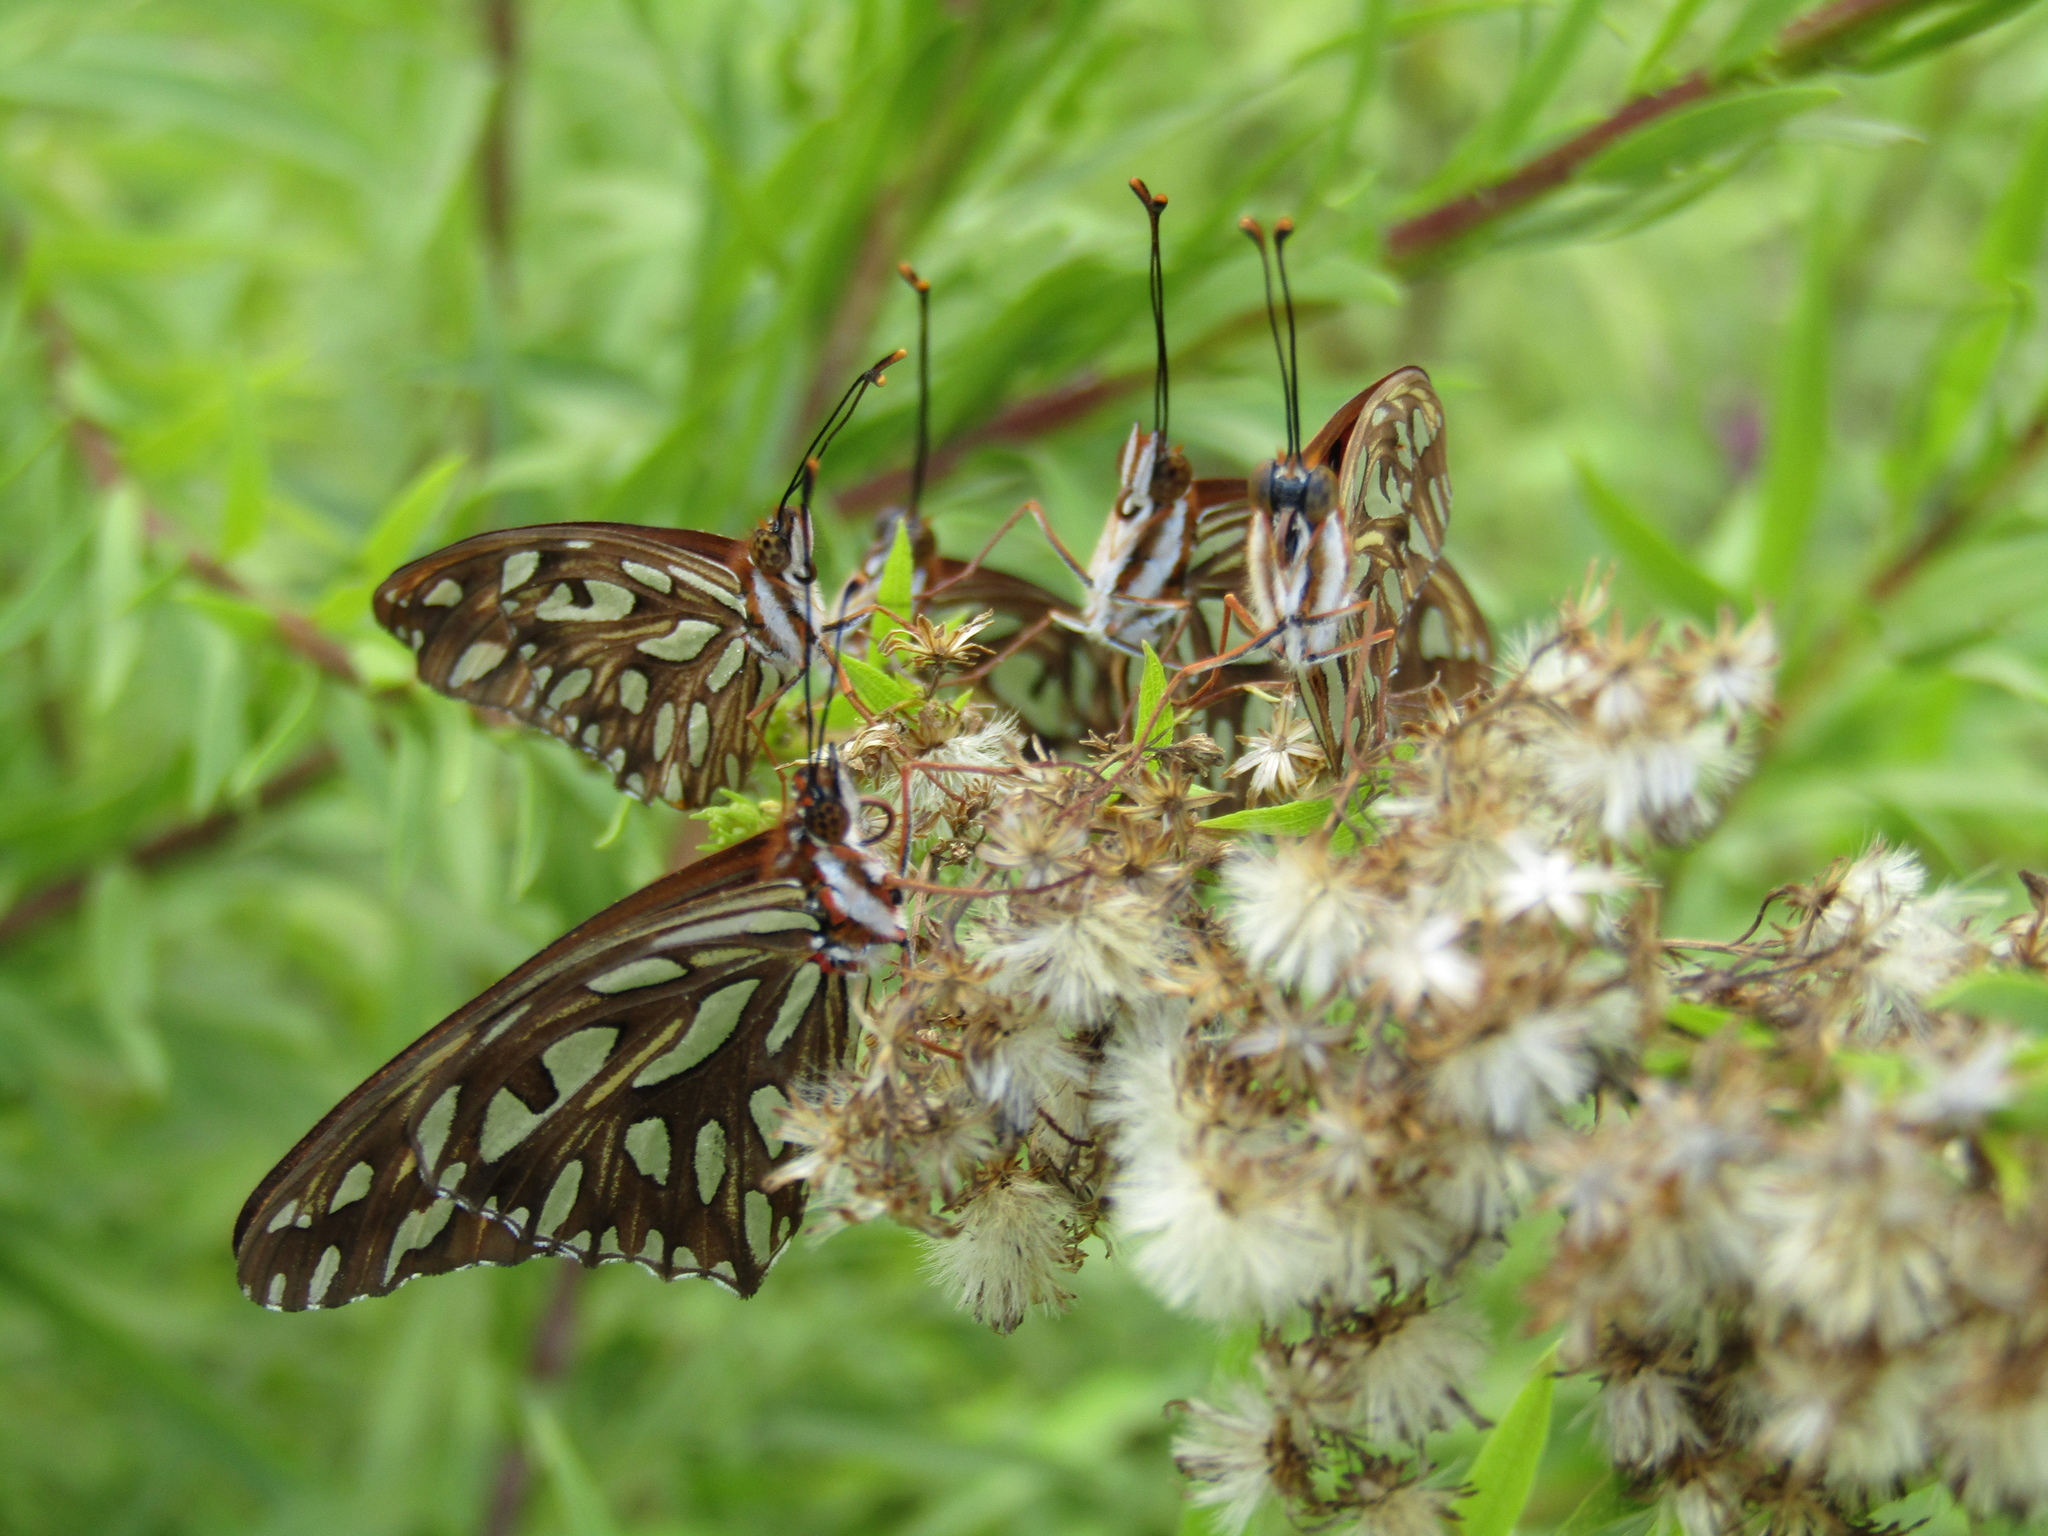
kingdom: Animalia
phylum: Arthropoda
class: Insecta
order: Lepidoptera
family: Nymphalidae
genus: Dione
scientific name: Dione vanillae
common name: Gulf fritillary
